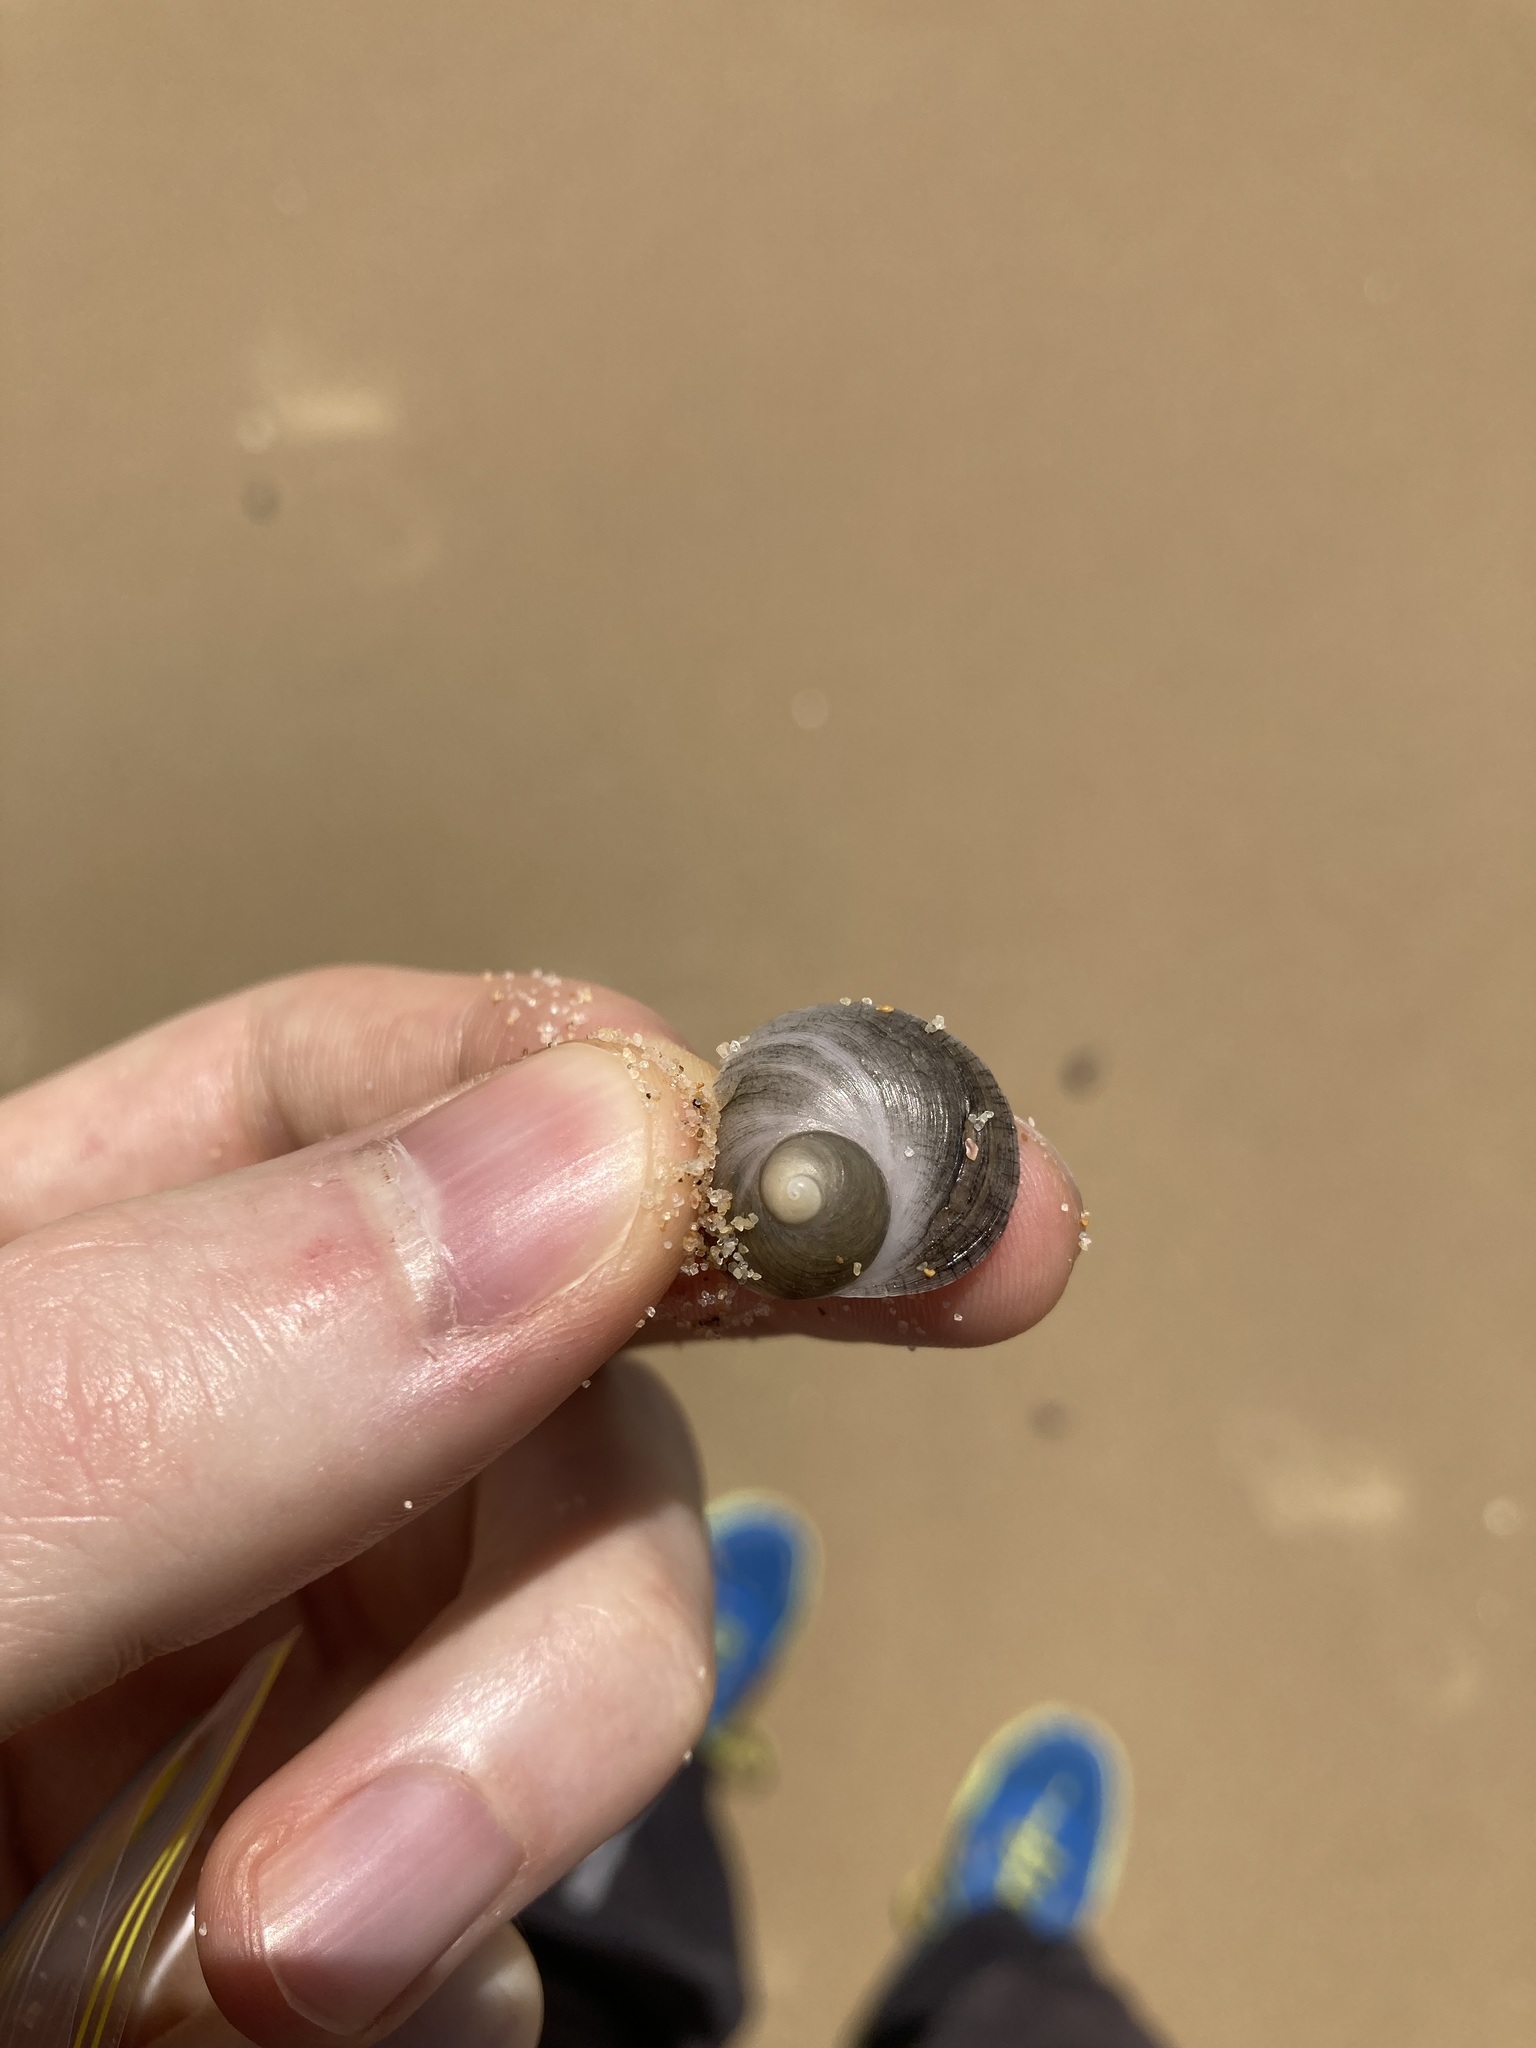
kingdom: Animalia
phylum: Mollusca
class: Gastropoda
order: Littorinimorpha
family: Calyptraeidae
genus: Sigapatella
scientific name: Sigapatella calyptraeformis
